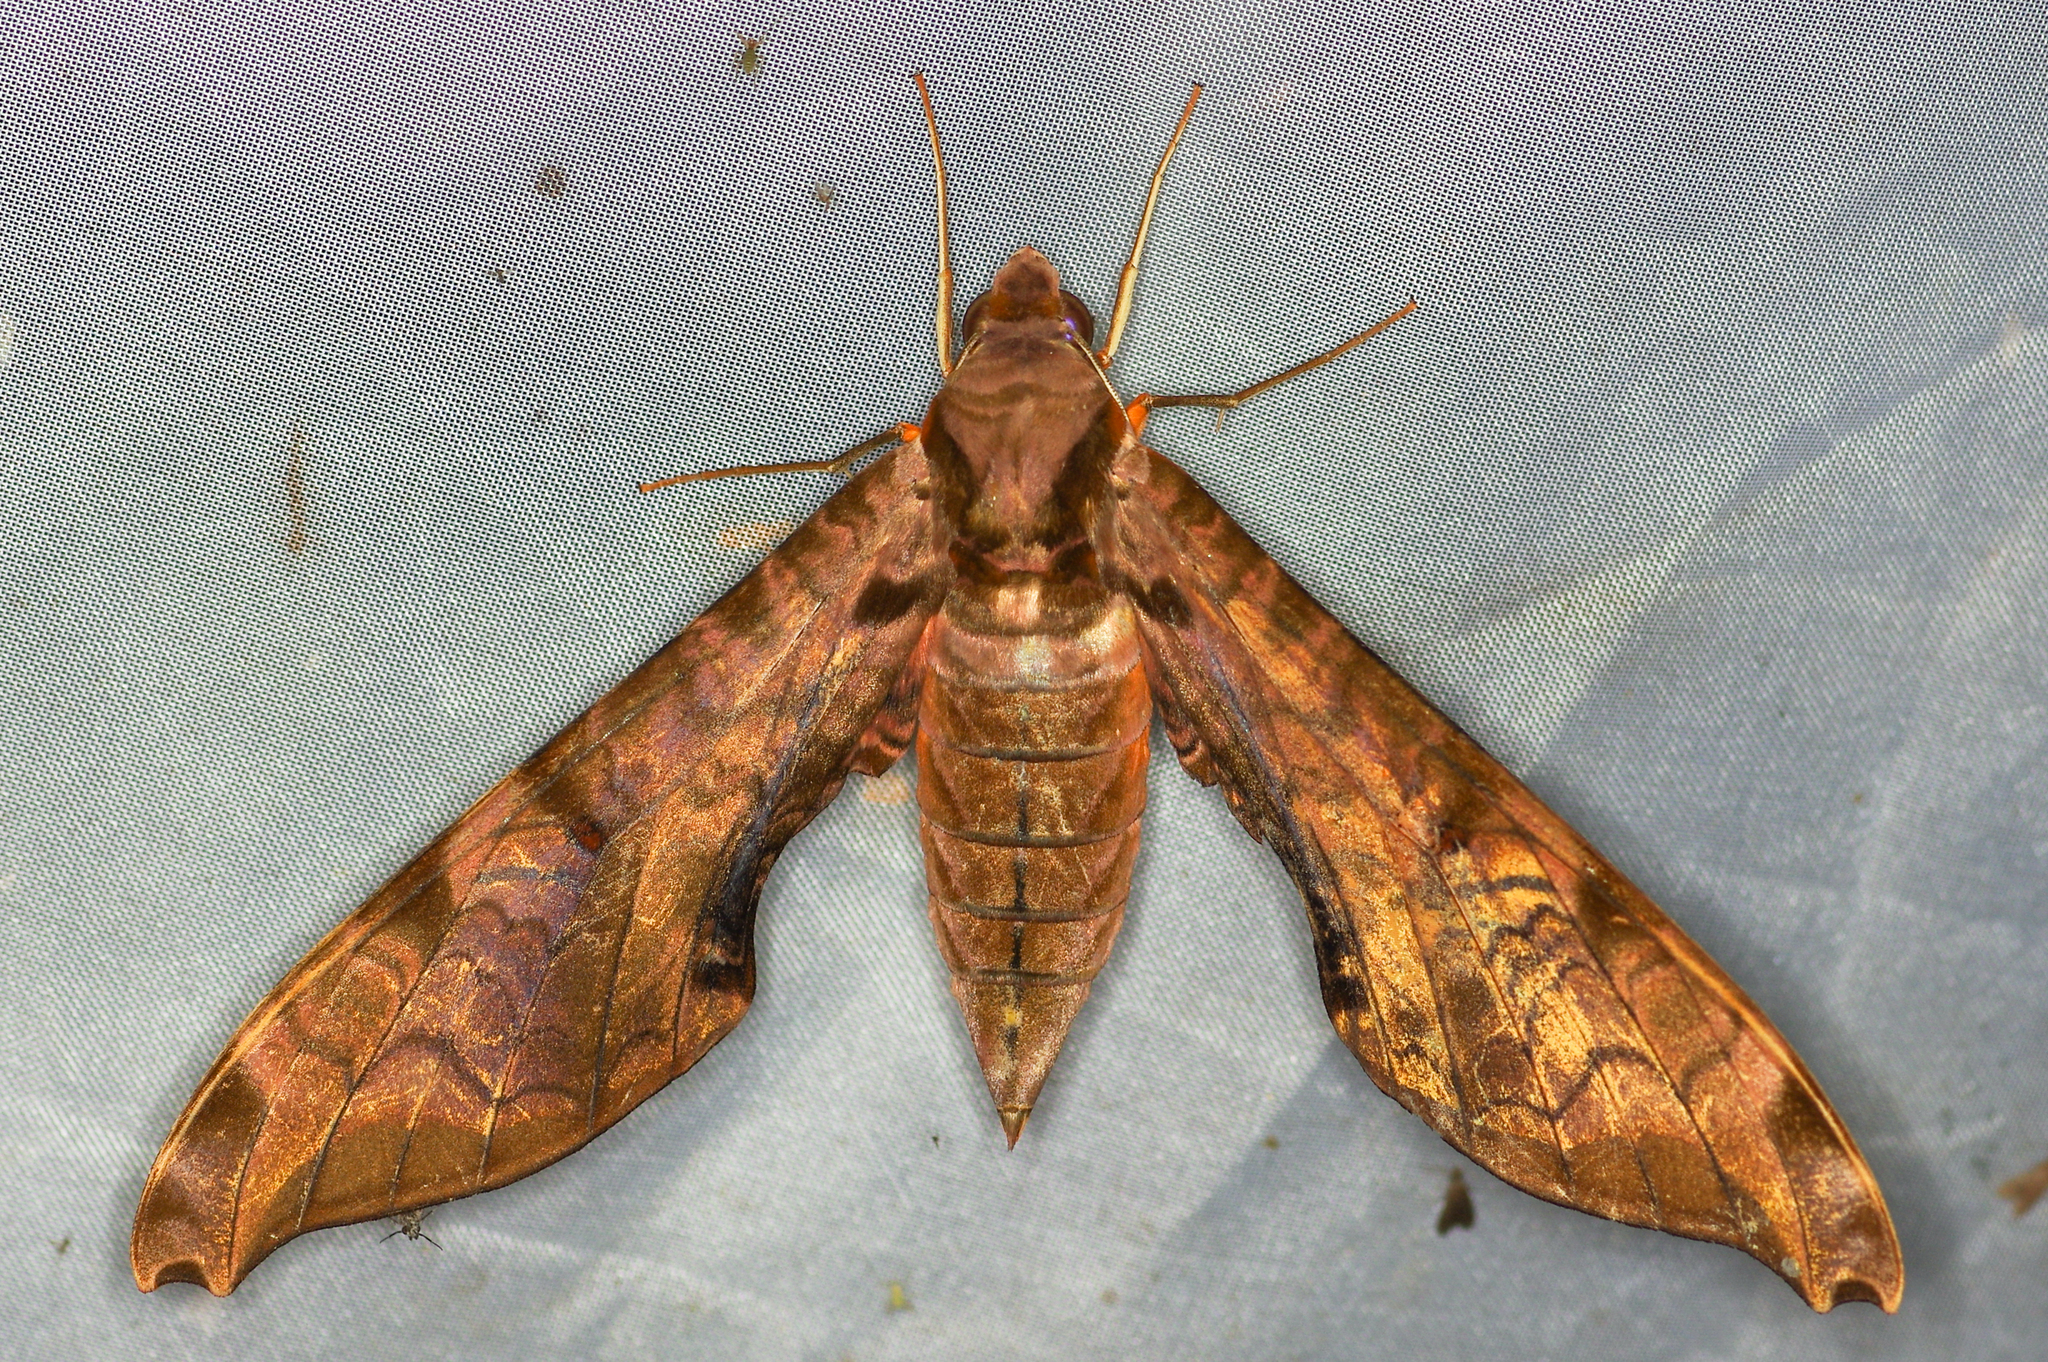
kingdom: Animalia
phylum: Arthropoda
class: Insecta
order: Lepidoptera
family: Sphingidae
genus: Protambulyx
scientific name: Protambulyx strigilis
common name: Streaked sphinx
